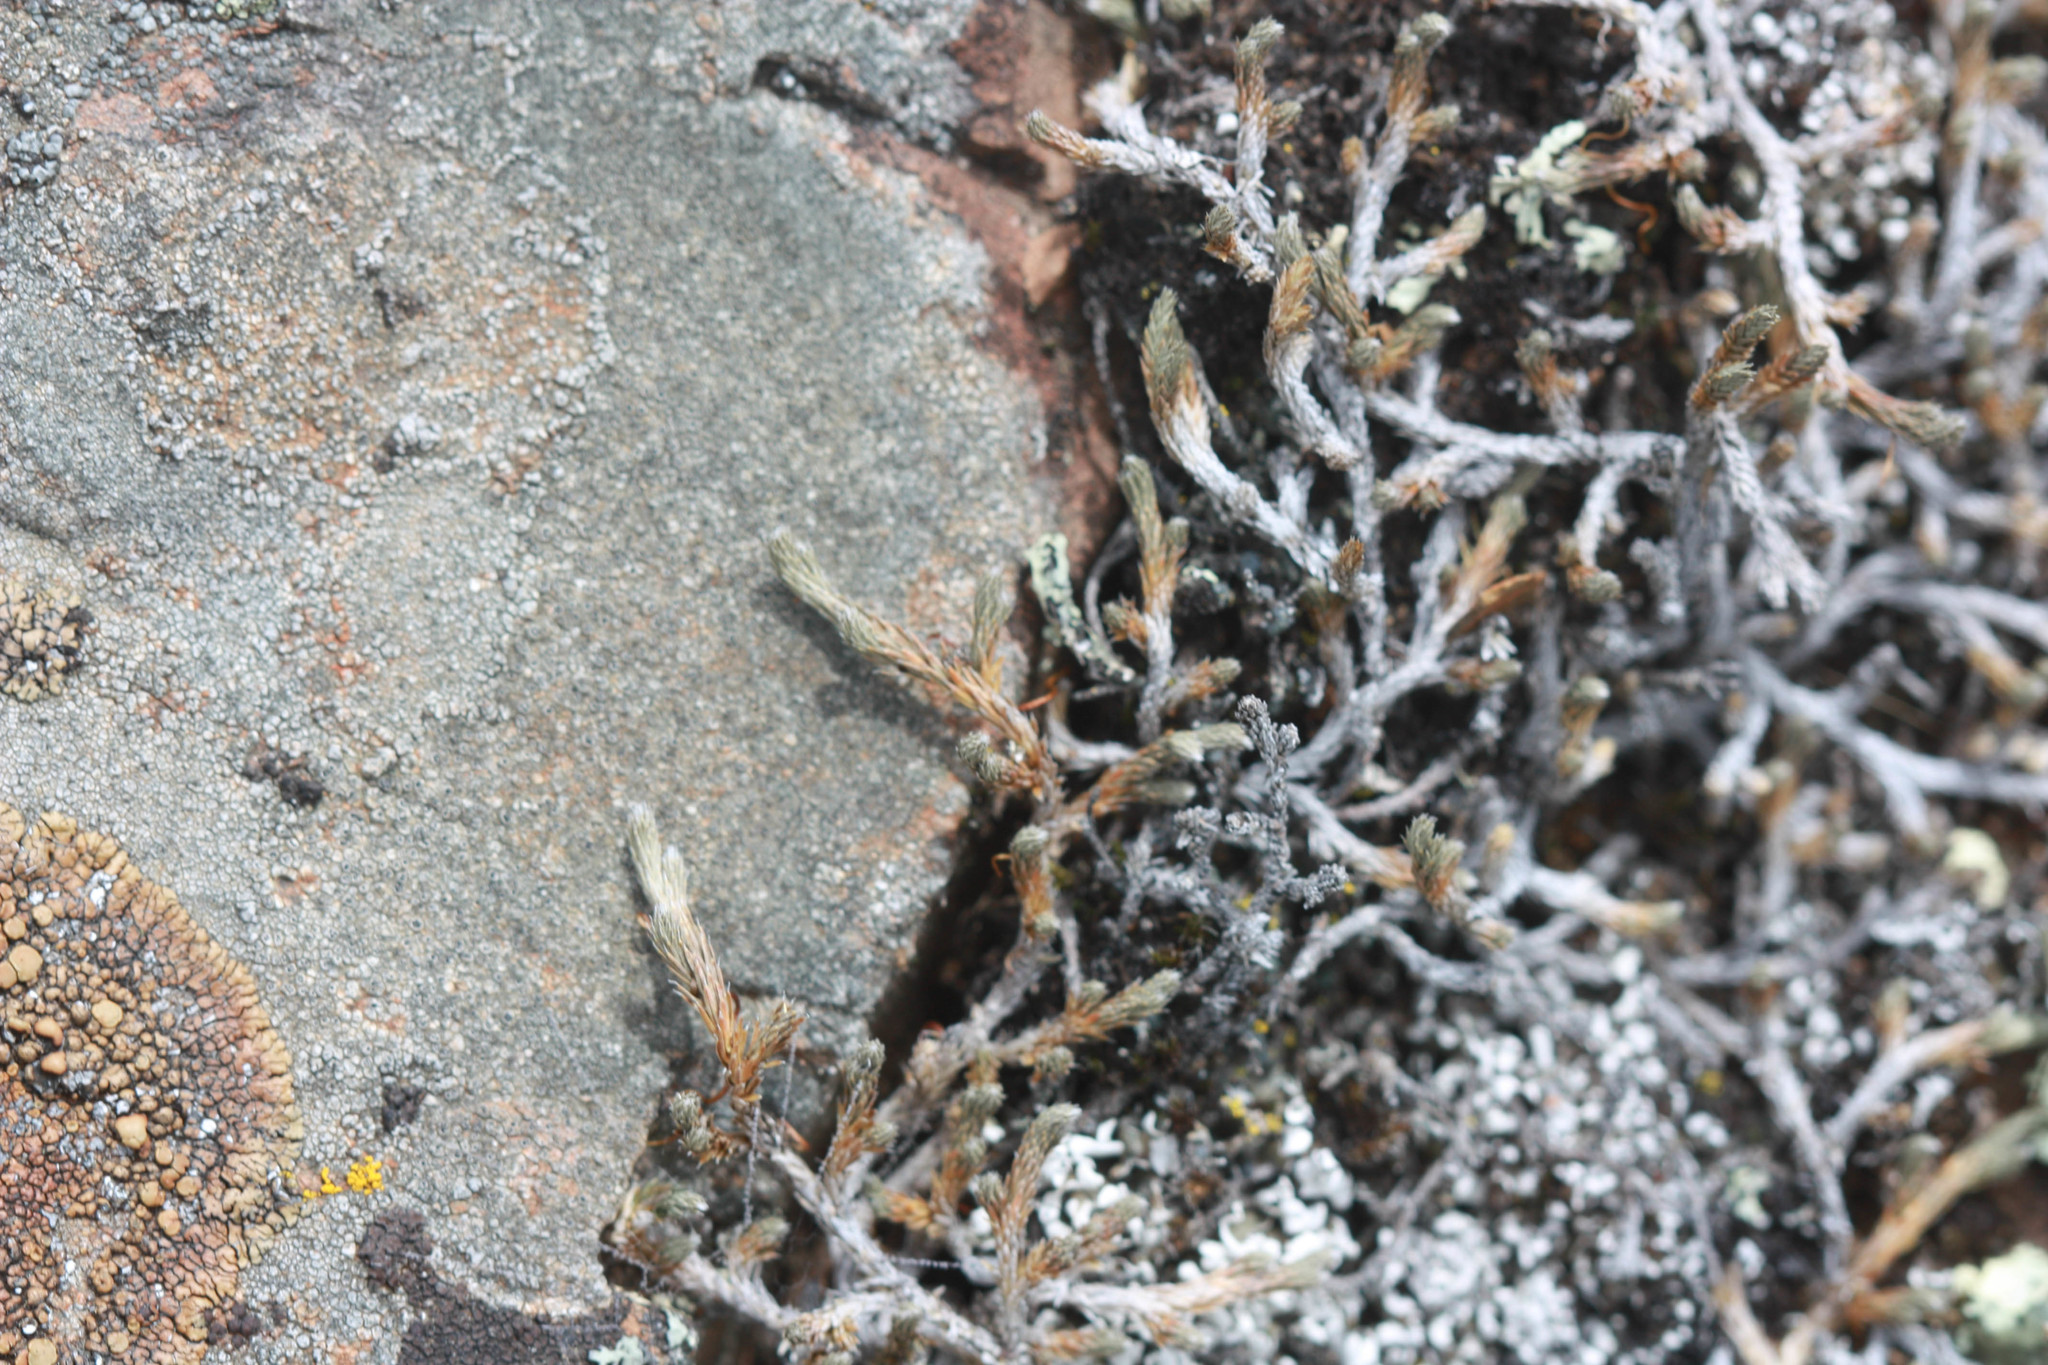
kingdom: Plantae
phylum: Tracheophyta
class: Lycopodiopsida
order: Selaginellales
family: Selaginellaceae
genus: Selaginella
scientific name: Selaginella wallacei
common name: Wallace's selaginella
